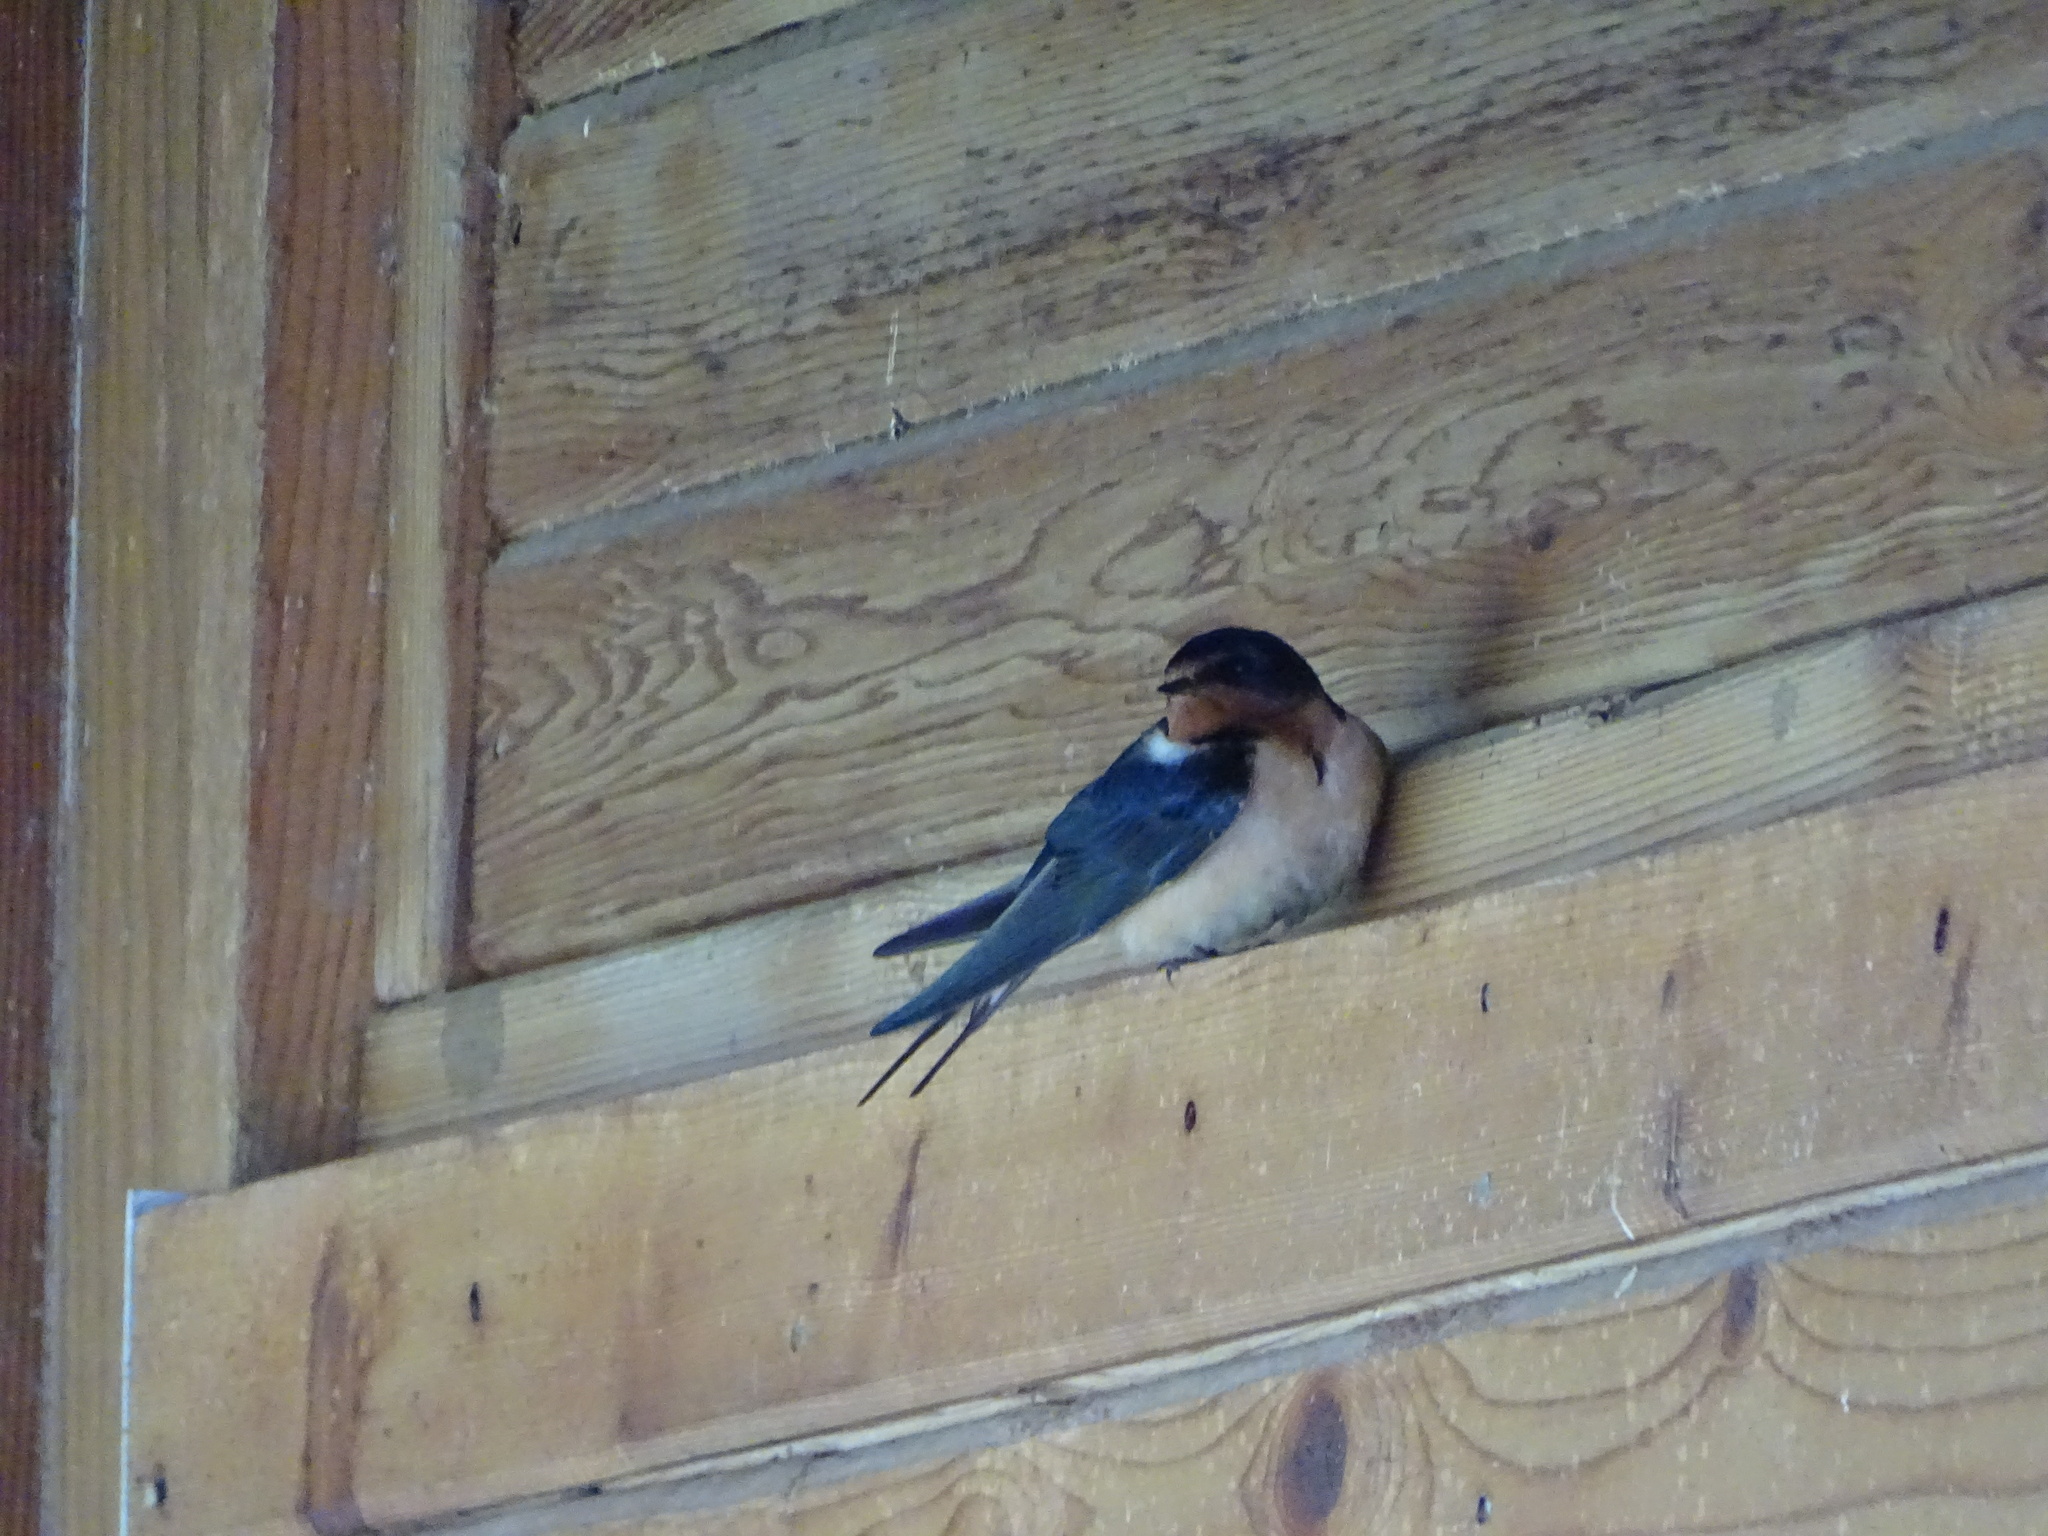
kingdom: Animalia
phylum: Chordata
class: Aves
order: Passeriformes
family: Hirundinidae
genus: Hirundo
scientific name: Hirundo rustica
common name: Barn swallow
